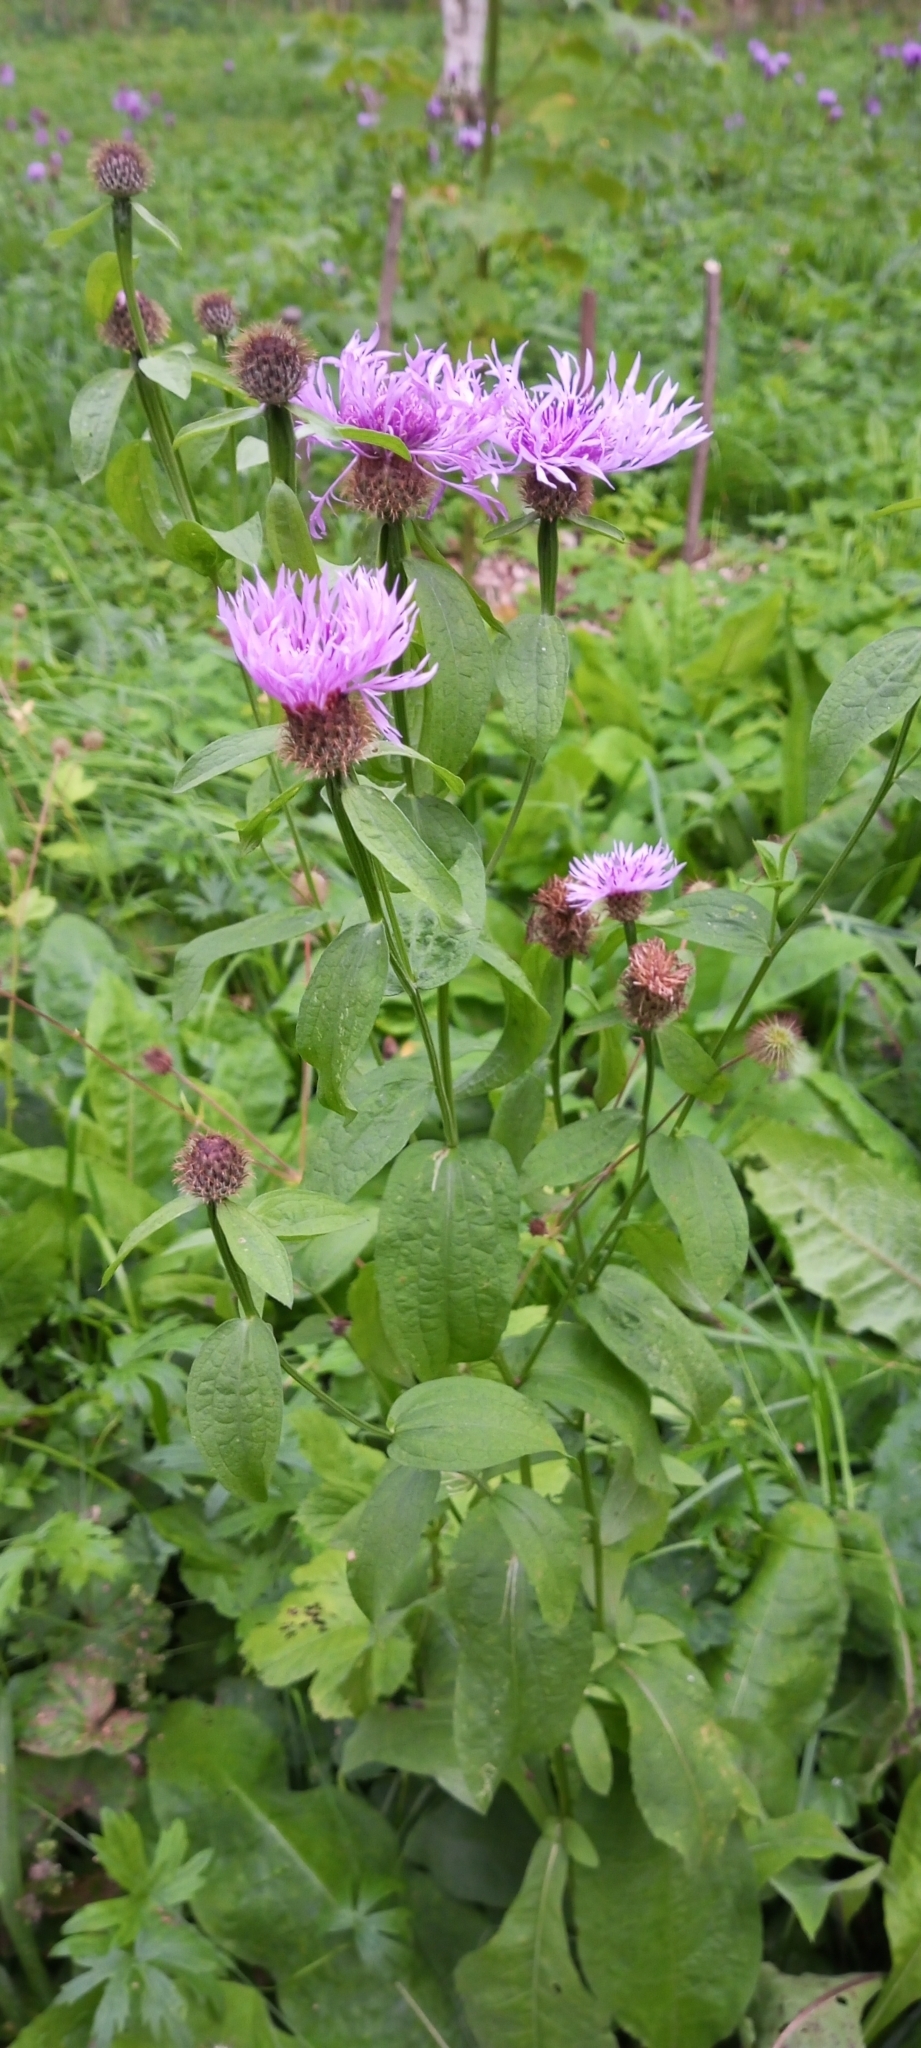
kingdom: Plantae
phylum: Tracheophyta
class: Magnoliopsida
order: Asterales
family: Asteraceae
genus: Centaurea
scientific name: Centaurea pseudophrygia
